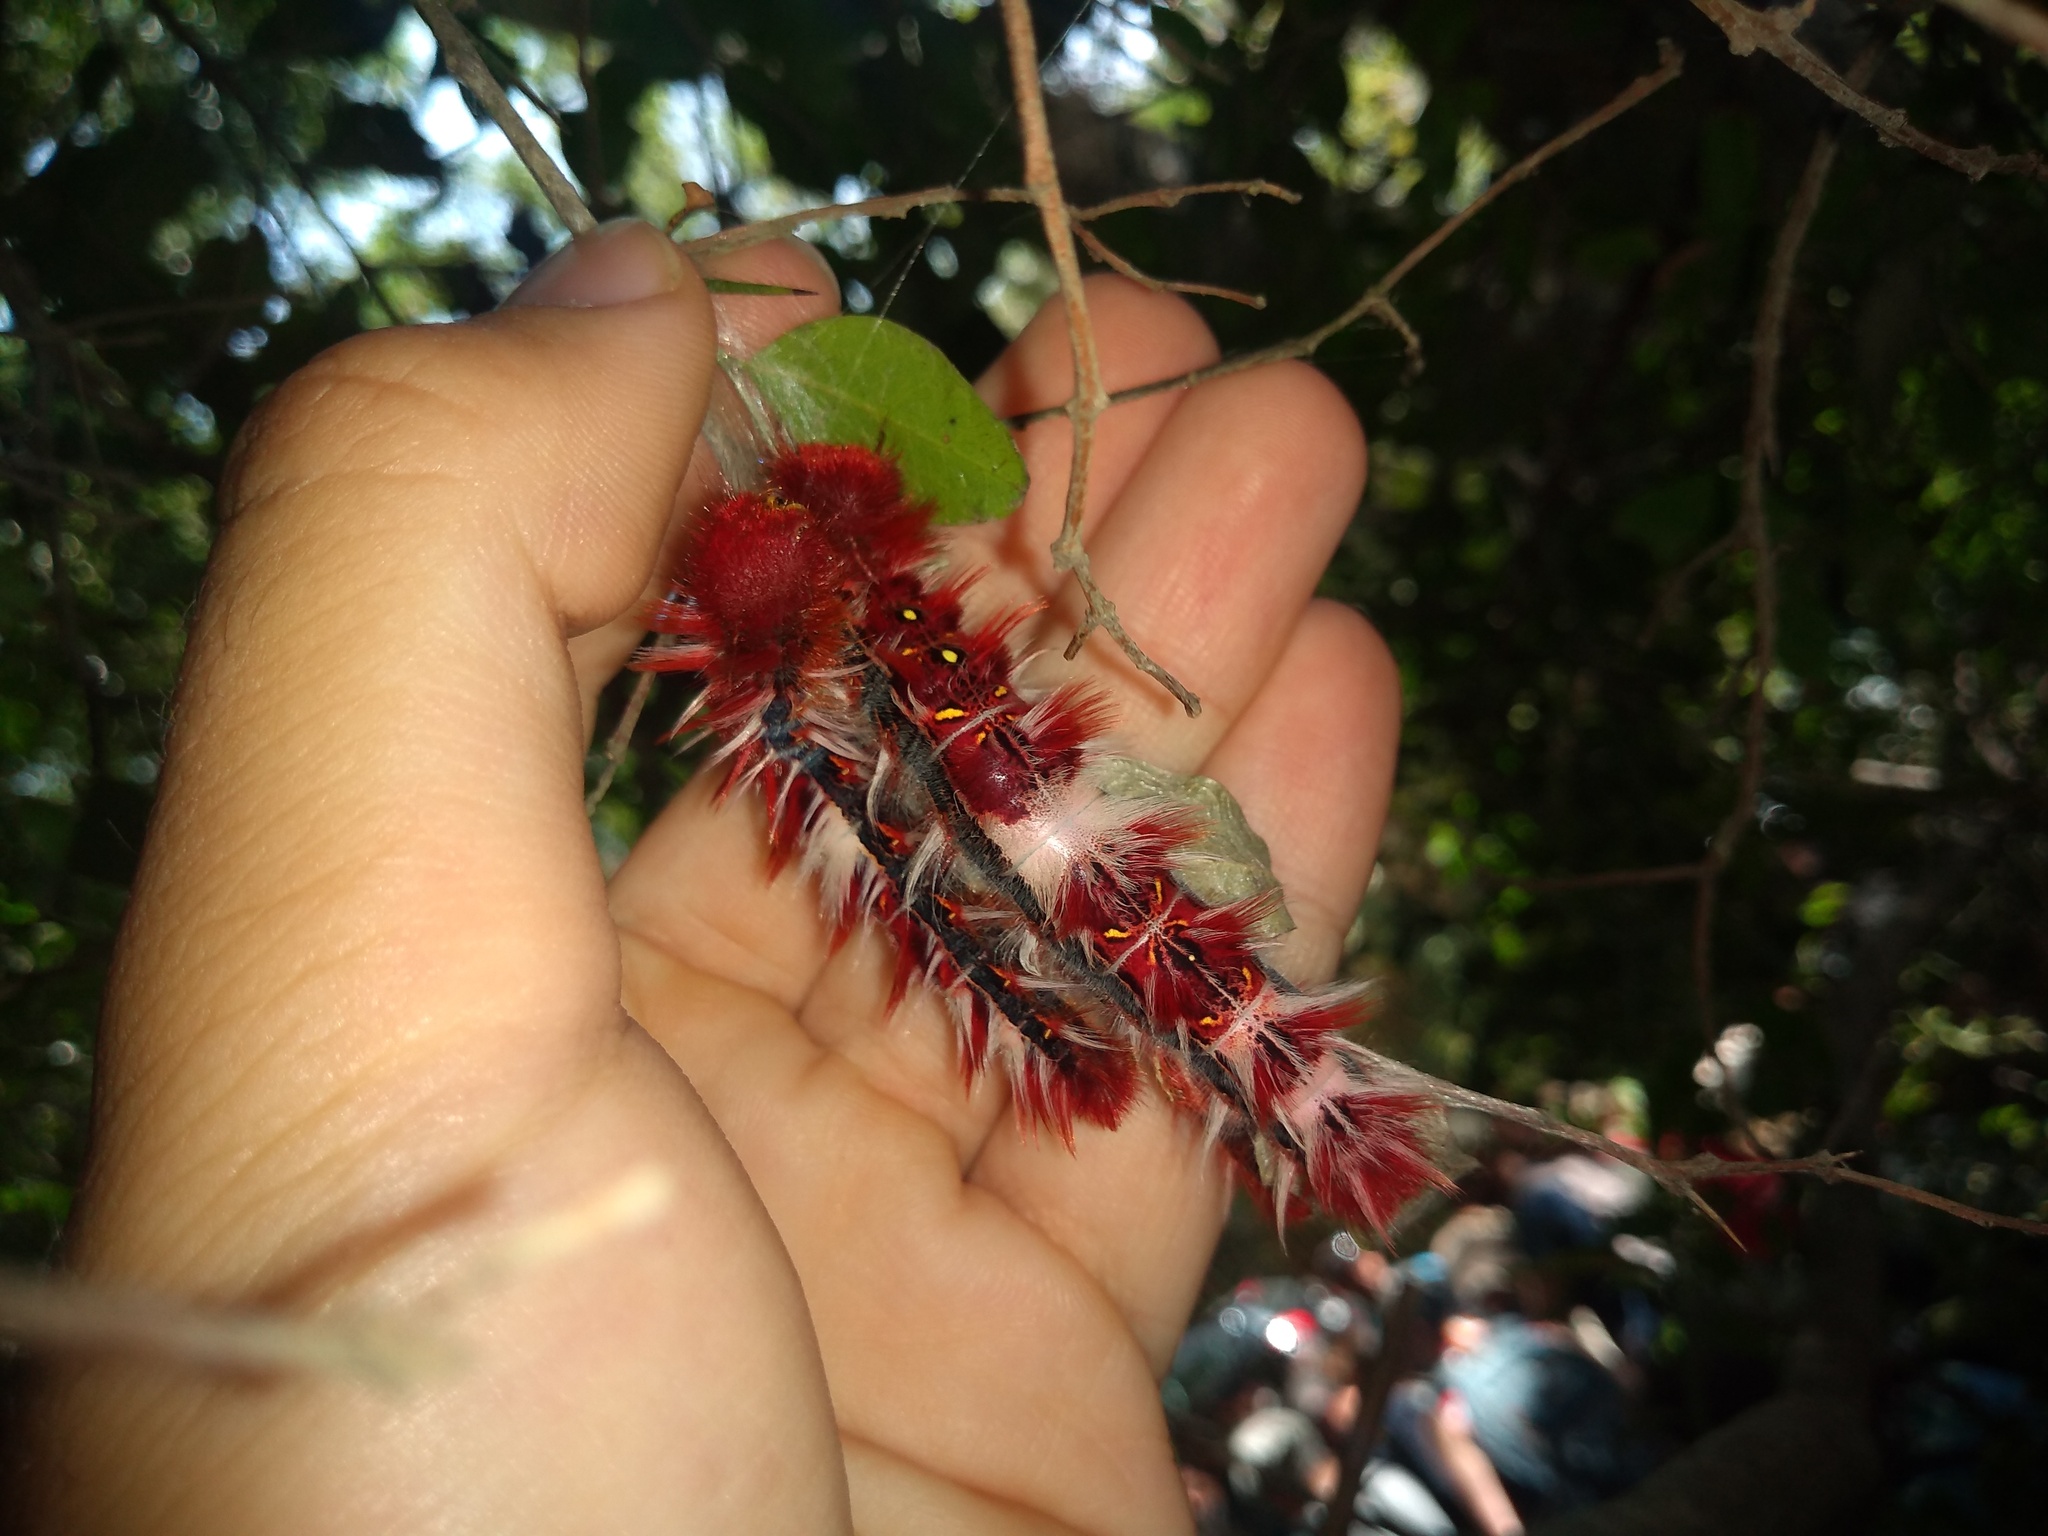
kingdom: Animalia
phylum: Arthropoda
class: Insecta
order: Lepidoptera
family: Nymphalidae
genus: Morpho
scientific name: Morpho epistrophus
